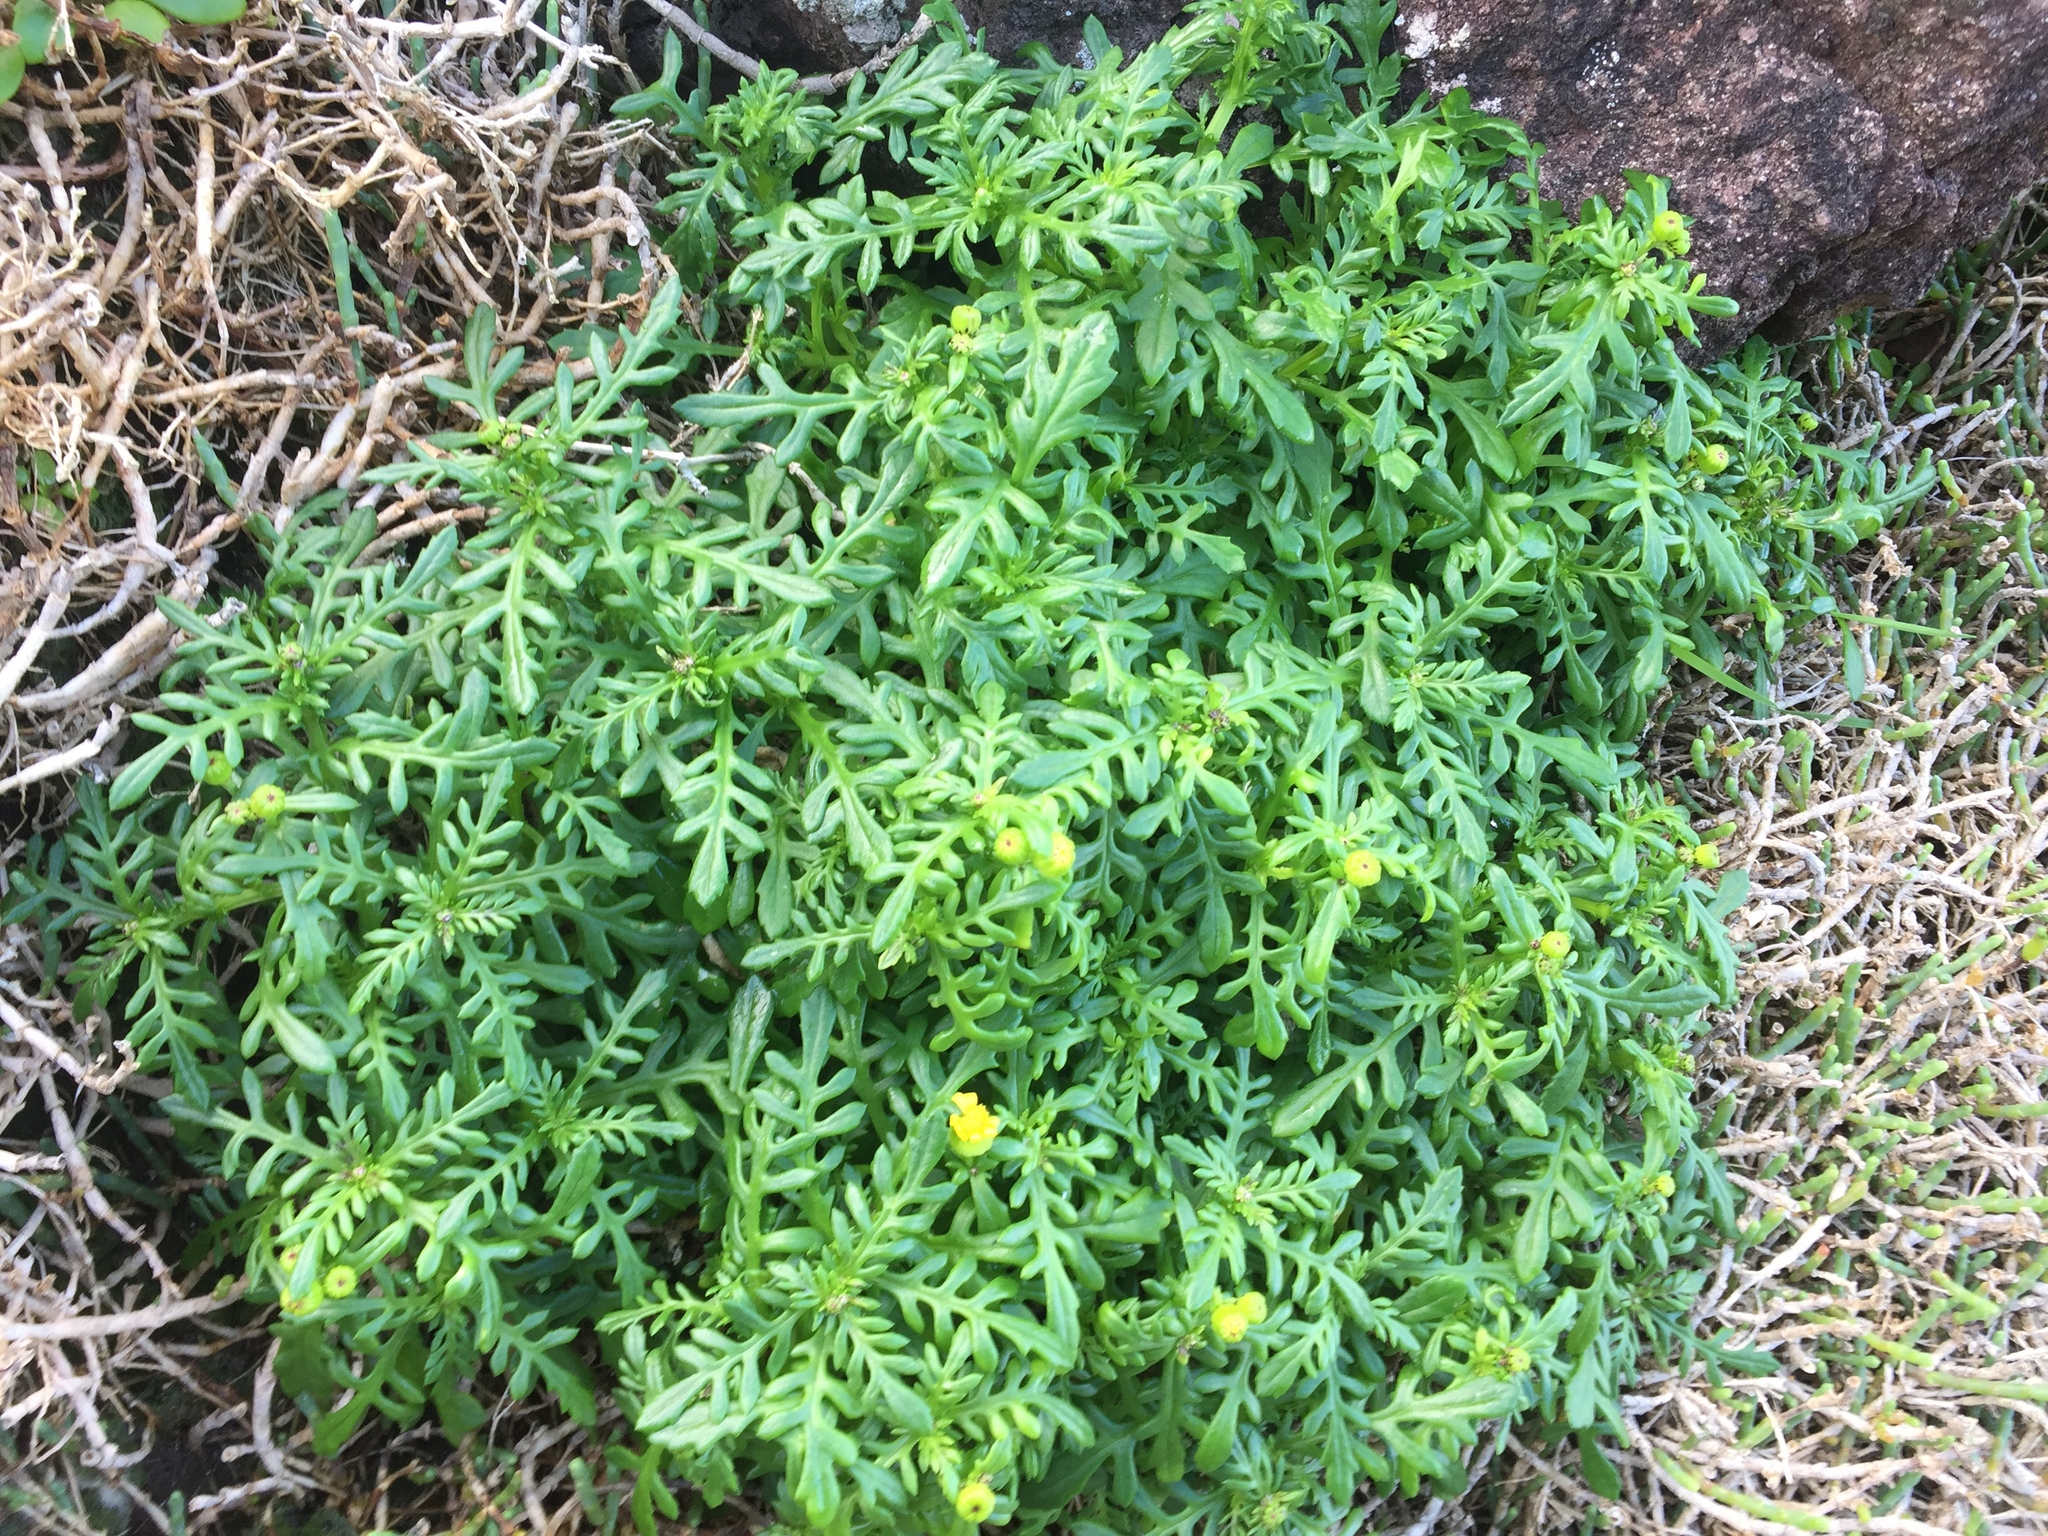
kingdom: Plantae
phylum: Tracheophyta
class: Magnoliopsida
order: Asterales
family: Asteraceae
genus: Senecio
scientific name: Senecio lautus
